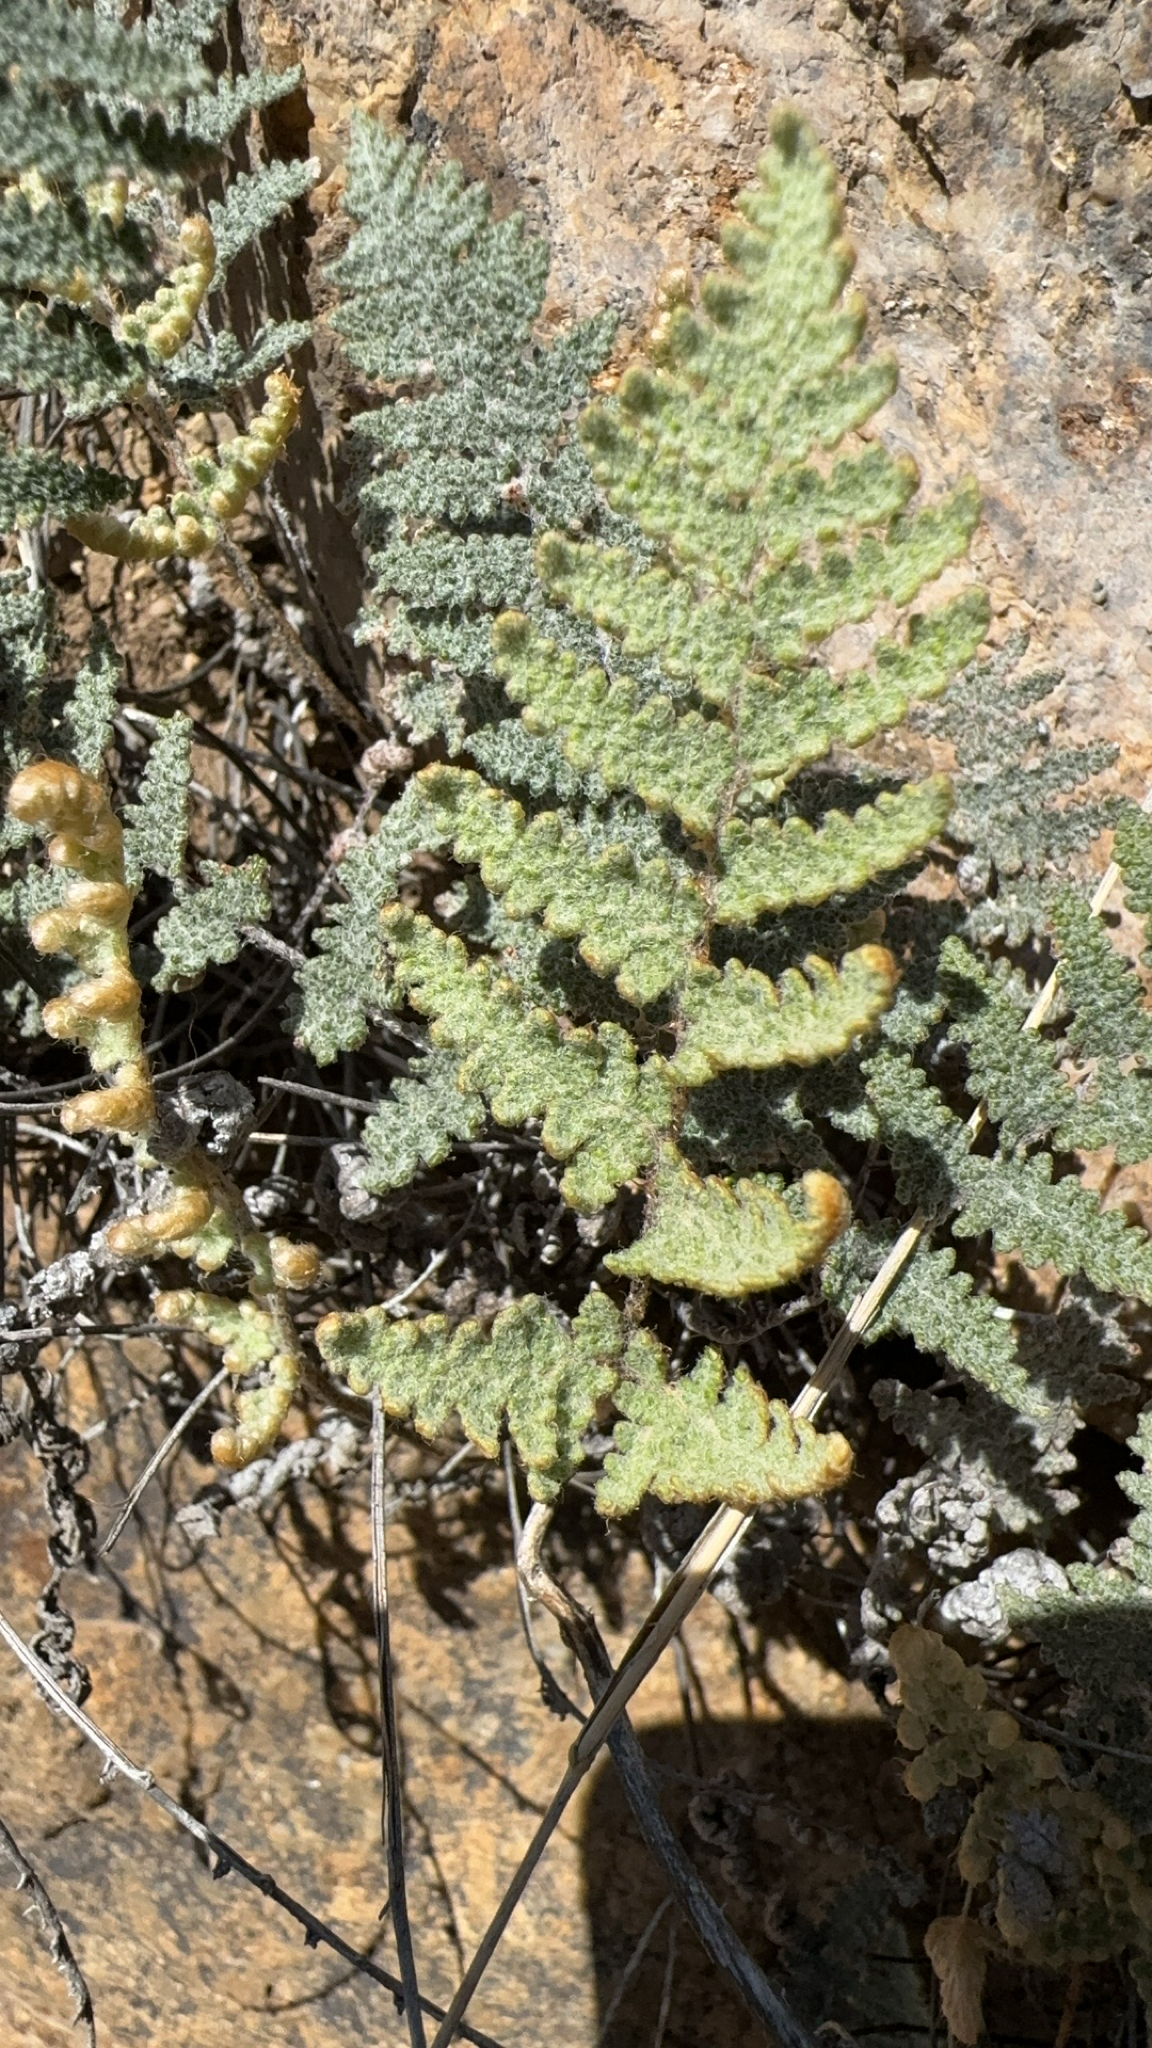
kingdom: Plantae
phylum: Tracheophyta
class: Polypodiopsida
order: Polypodiales
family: Pteridaceae
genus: Myriopteris
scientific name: Myriopteris lindheimeri
